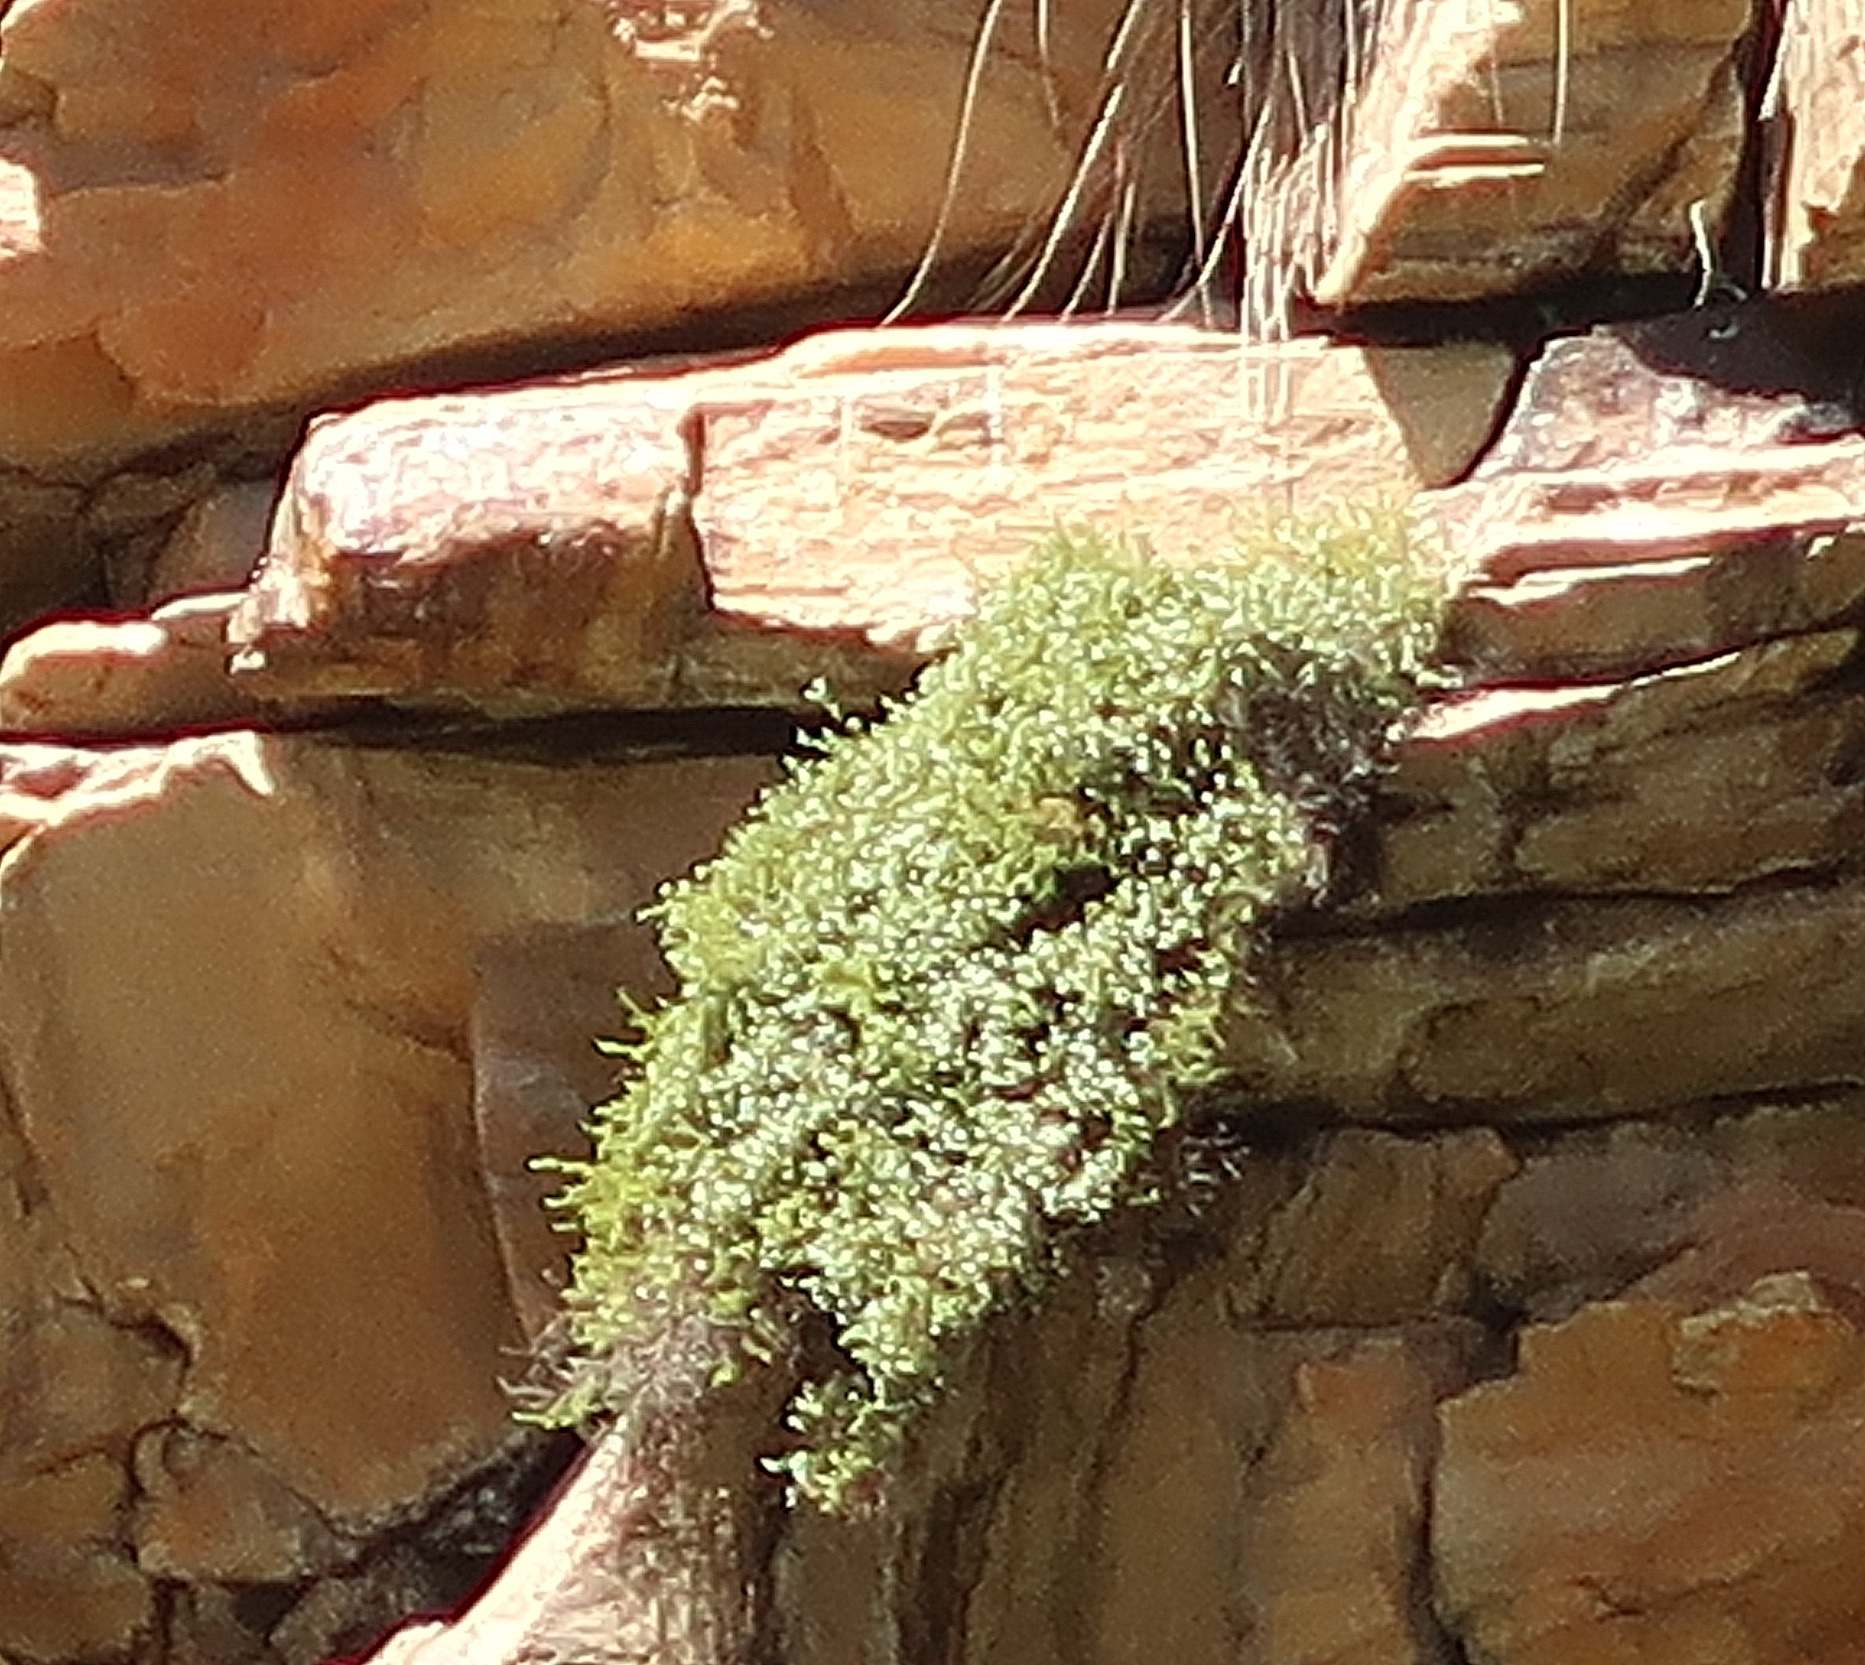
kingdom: Plantae
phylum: Tracheophyta
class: Magnoliopsida
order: Ericales
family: Ericaceae
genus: Erica
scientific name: Erica umbratica
